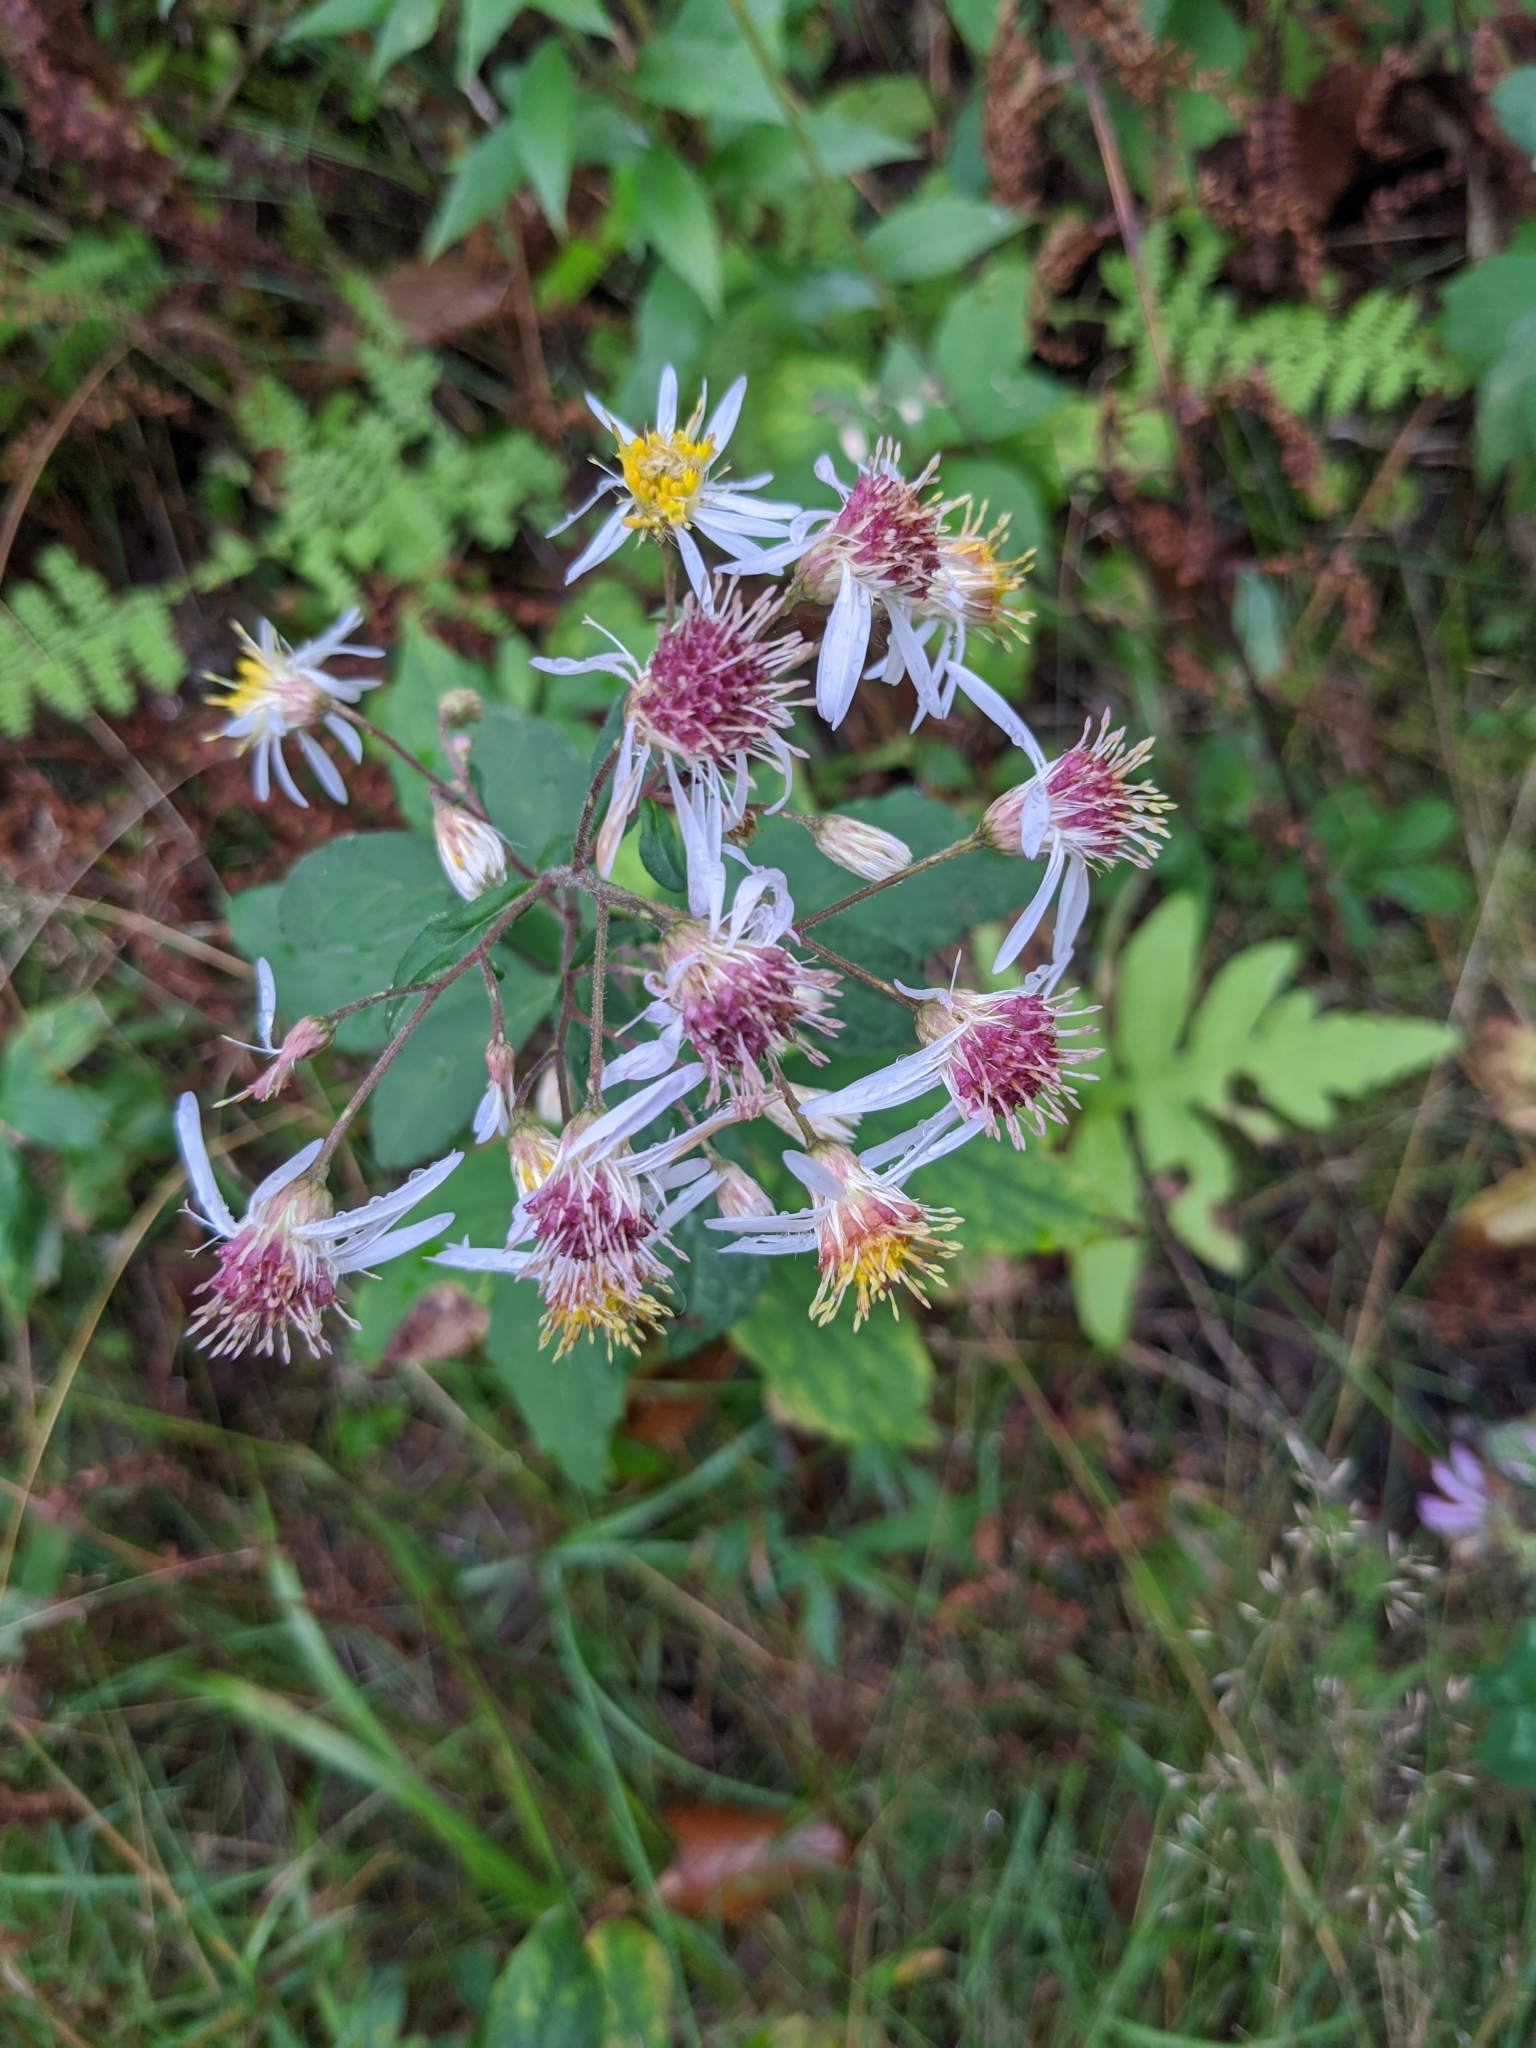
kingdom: Plantae
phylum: Tracheophyta
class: Magnoliopsida
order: Asterales
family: Asteraceae
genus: Eurybia
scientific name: Eurybia macrophylla
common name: Big-leaved aster
